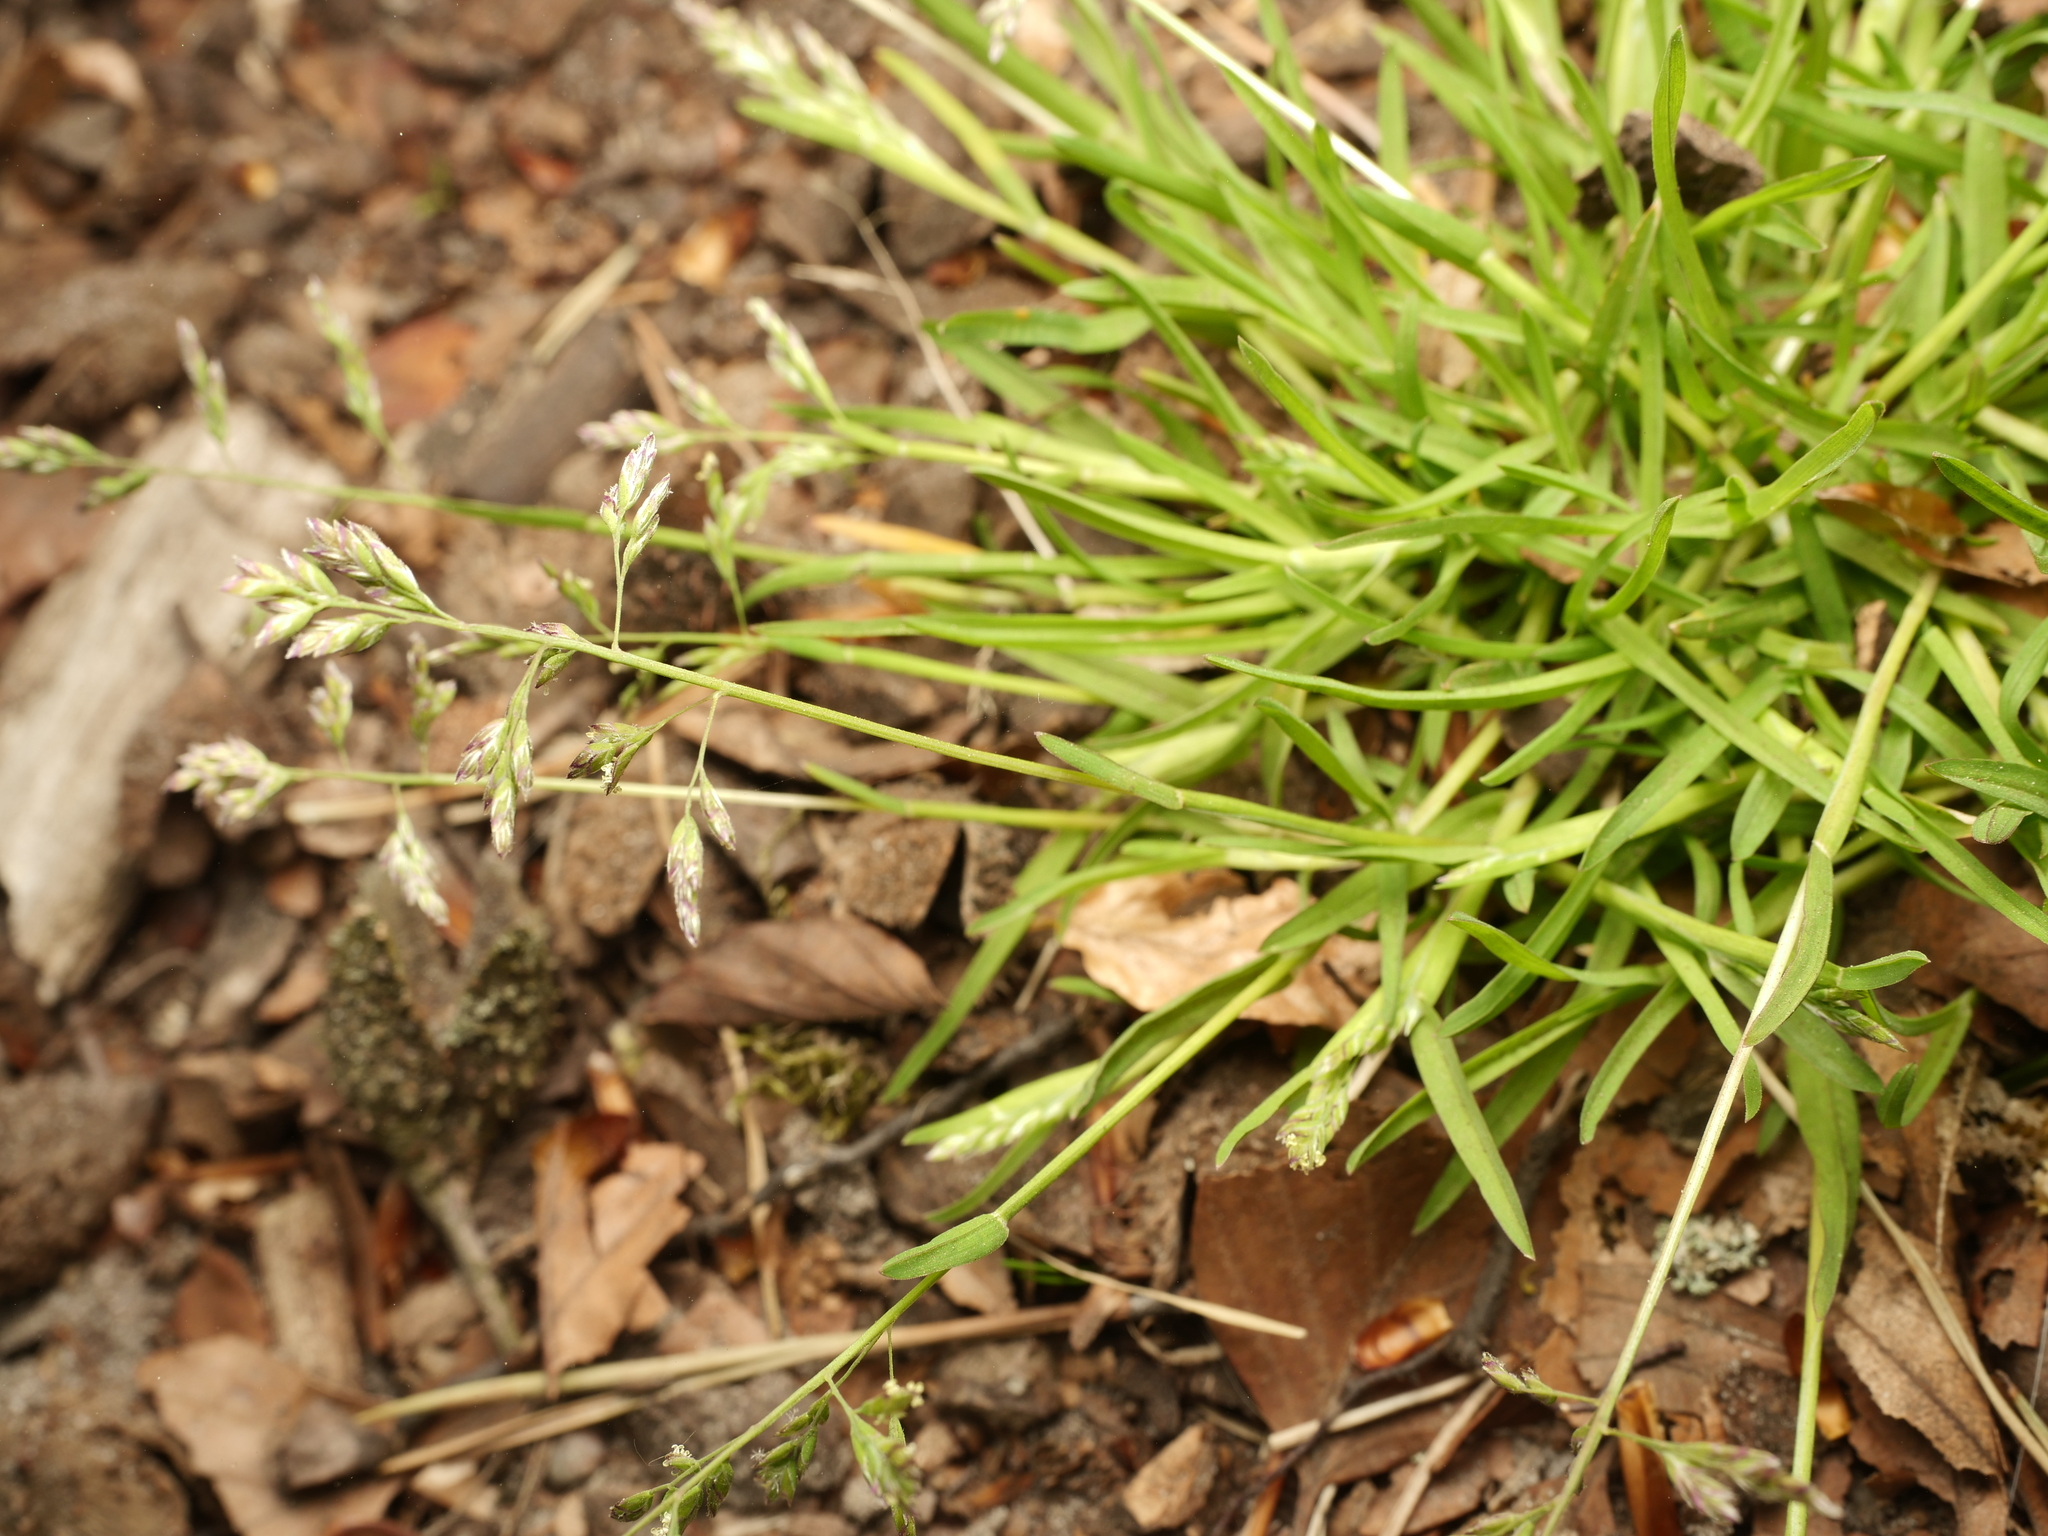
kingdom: Plantae
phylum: Tracheophyta
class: Liliopsida
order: Poales
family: Poaceae
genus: Poa
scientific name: Poa annua
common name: Annual bluegrass
